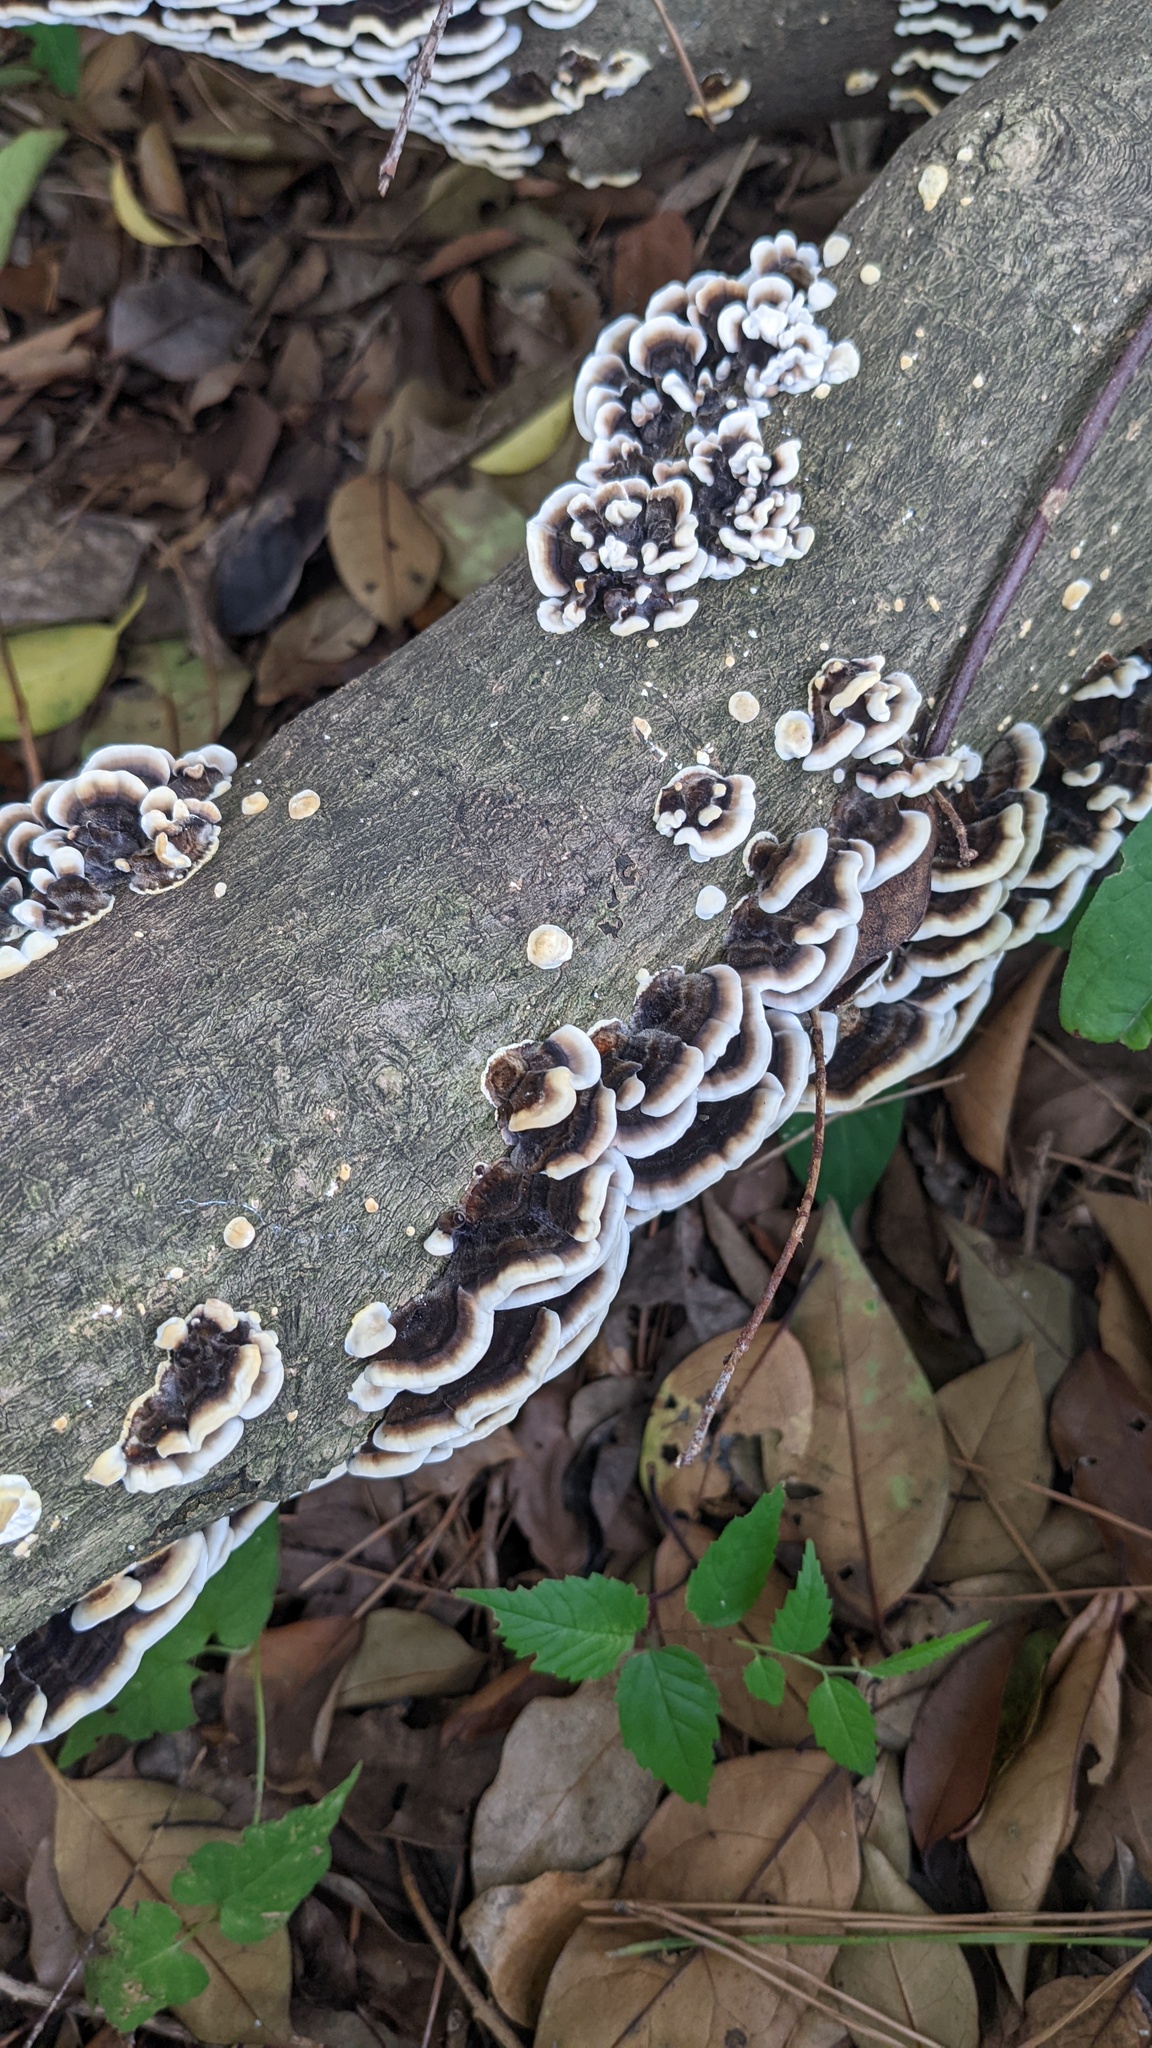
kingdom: Fungi
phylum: Basidiomycota
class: Agaricomycetes
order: Polyporales
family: Polyporaceae
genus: Trametes
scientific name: Trametes versicolor
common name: Turkeytail
